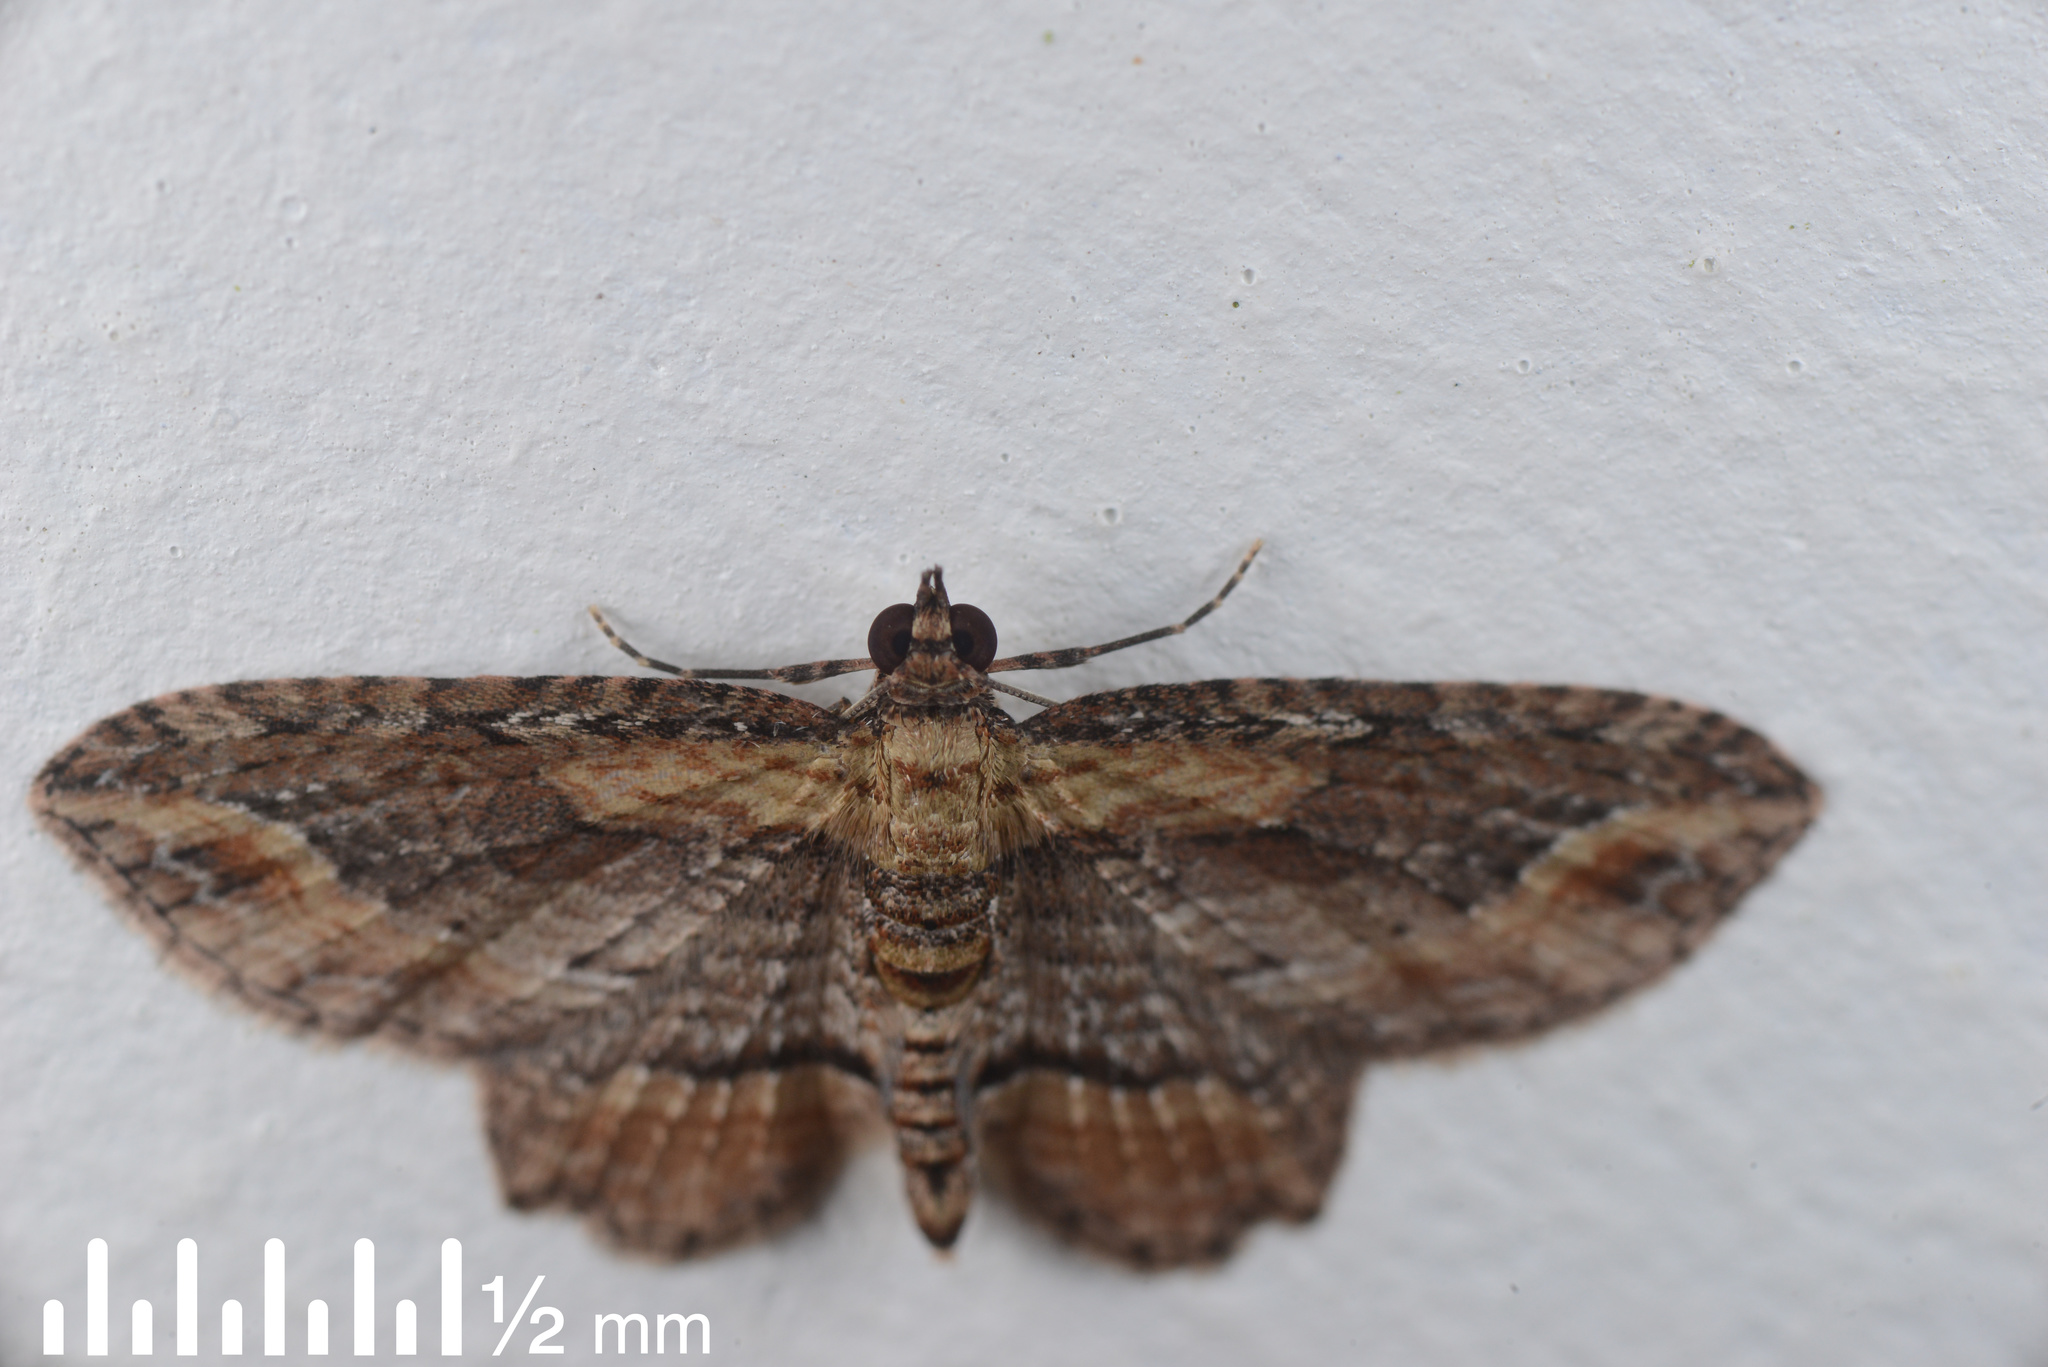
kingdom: Animalia
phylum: Arthropoda
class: Insecta
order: Lepidoptera
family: Geometridae
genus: Chloroclystis
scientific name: Chloroclystis filata
